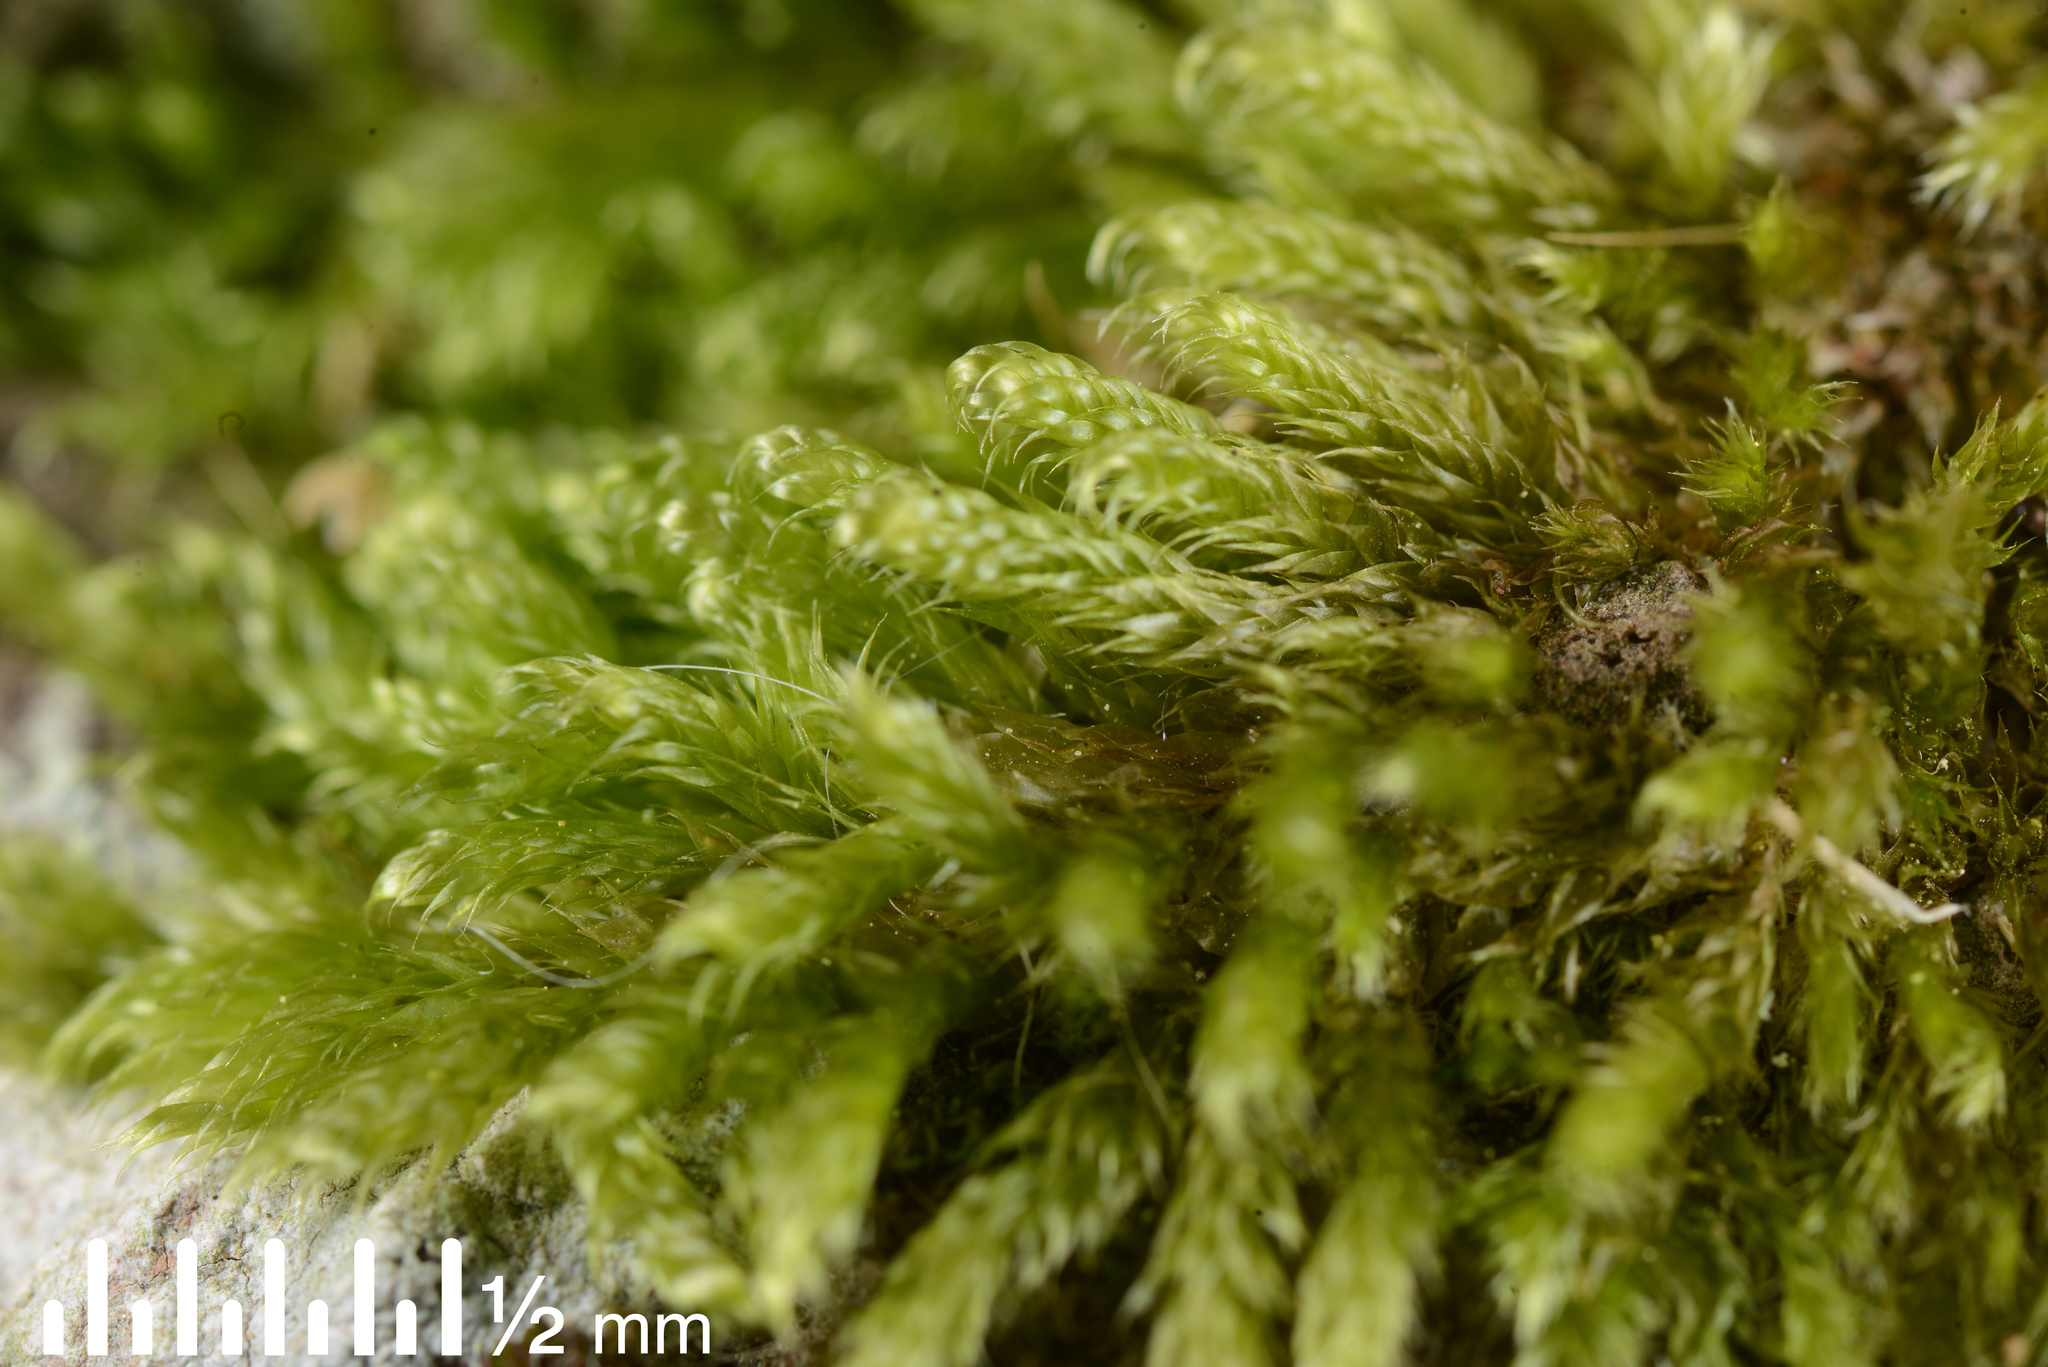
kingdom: Plantae
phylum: Bryophyta
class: Bryopsida
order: Hypnales
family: Hypnaceae
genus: Hypnum
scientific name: Hypnum cupressiforme
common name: Cypress-leaved plait-moss
